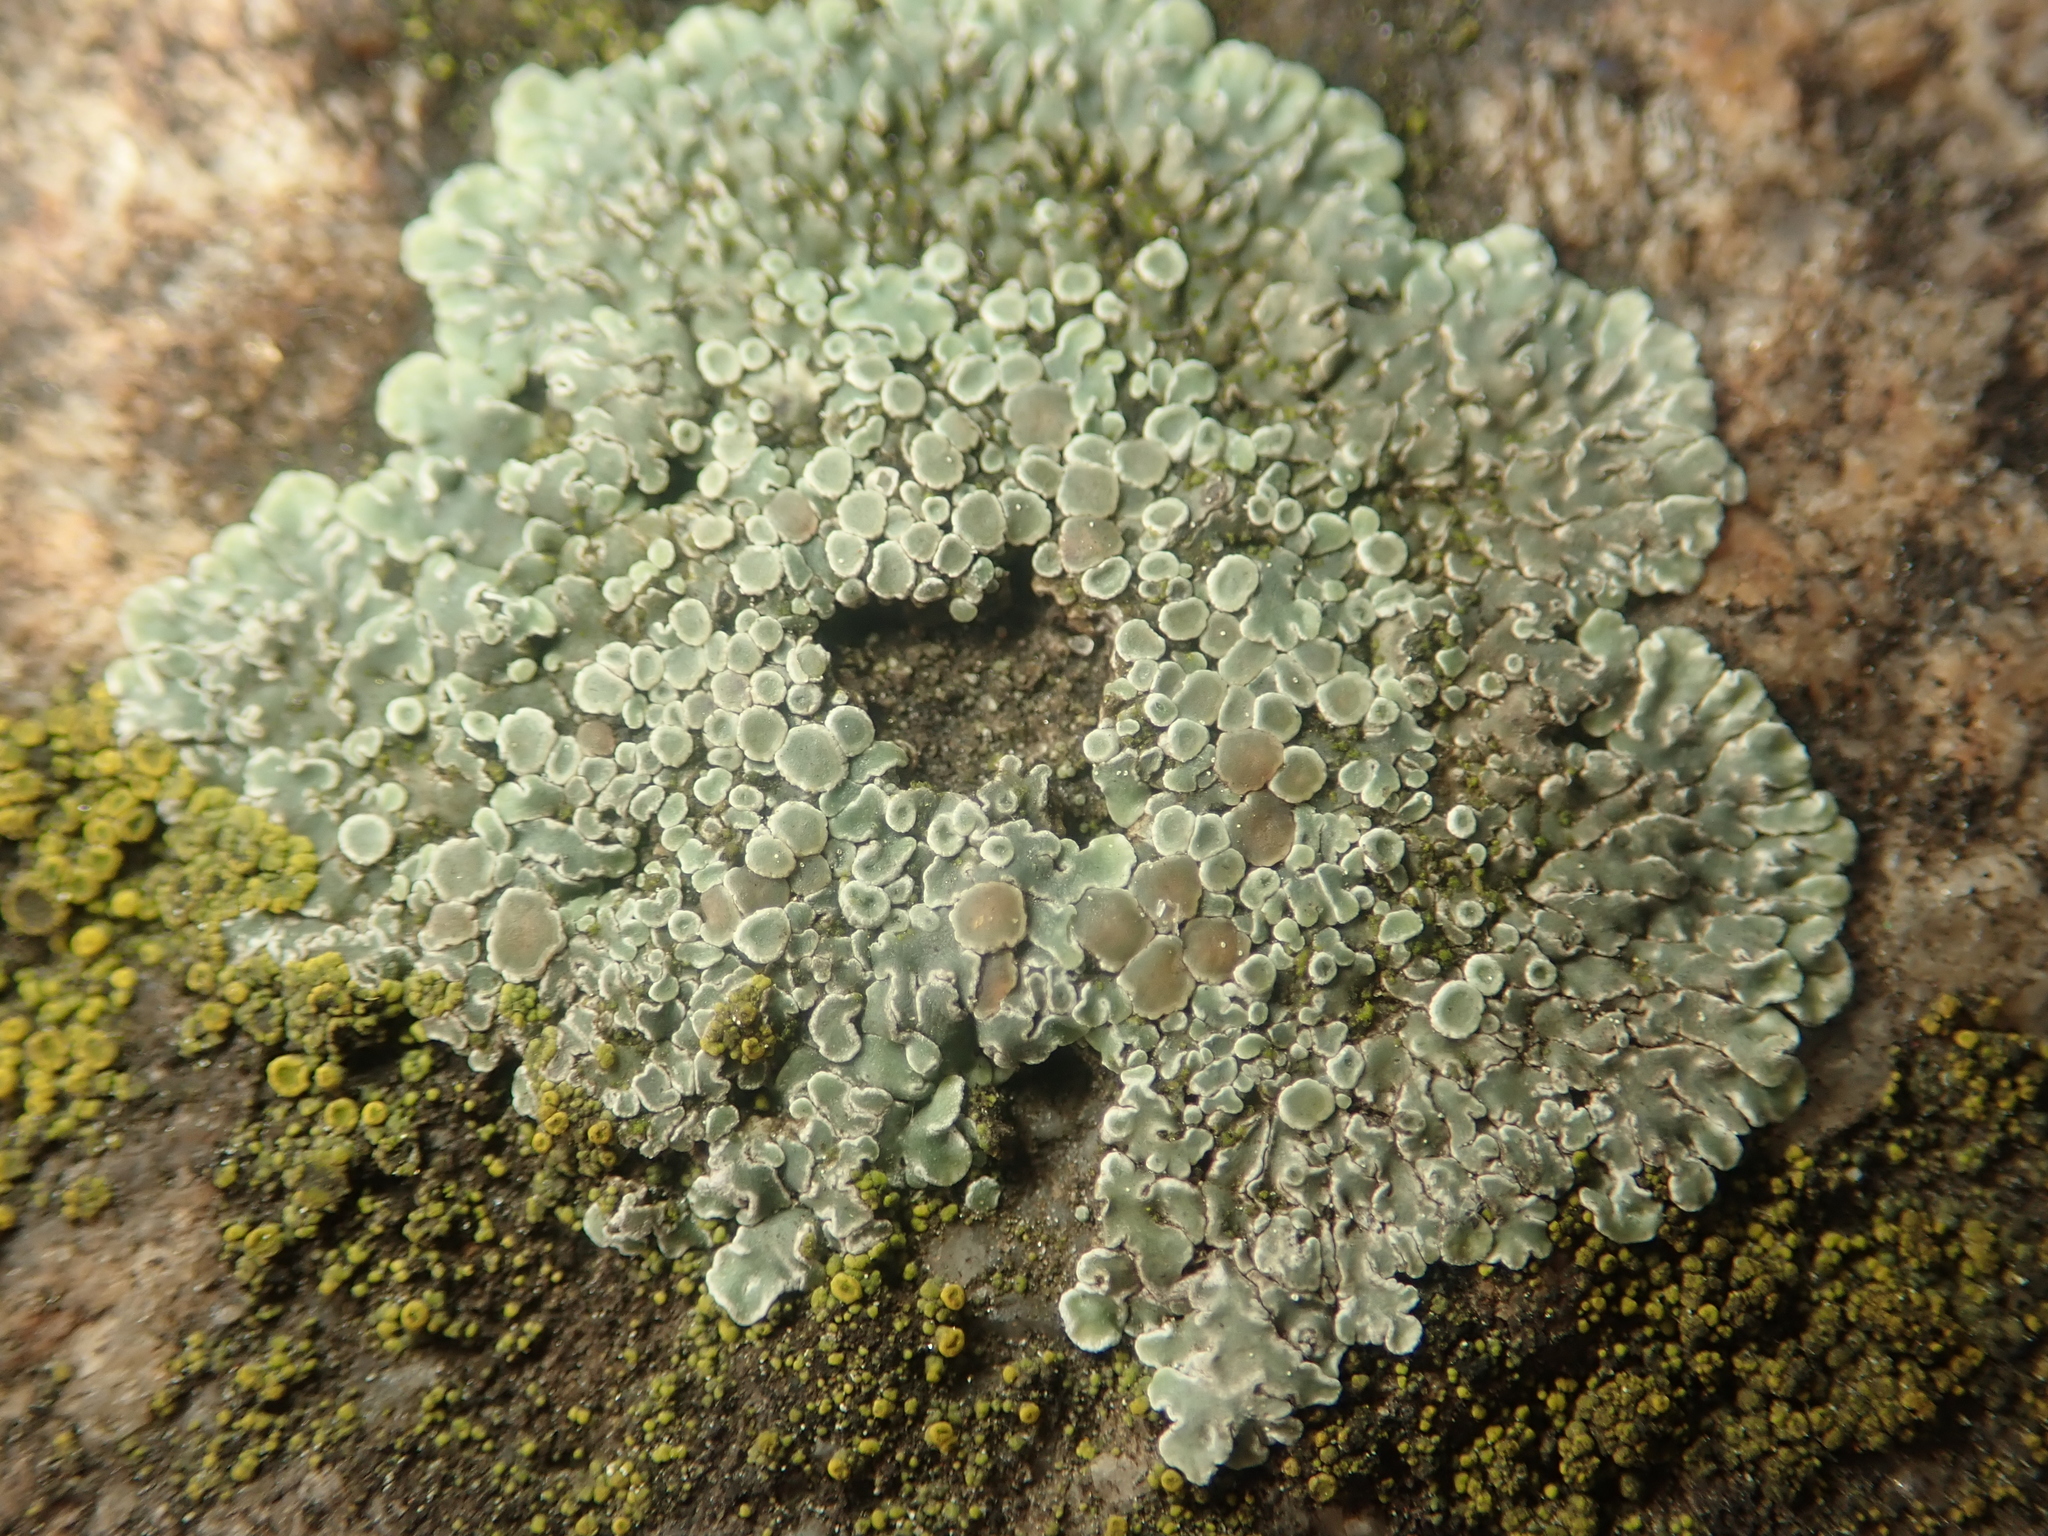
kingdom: Fungi
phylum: Ascomycota
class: Lecanoromycetes
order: Lecanorales
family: Lecanoraceae
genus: Protoparmeliopsis
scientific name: Protoparmeliopsis muralis
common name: Stonewall rim lichen
